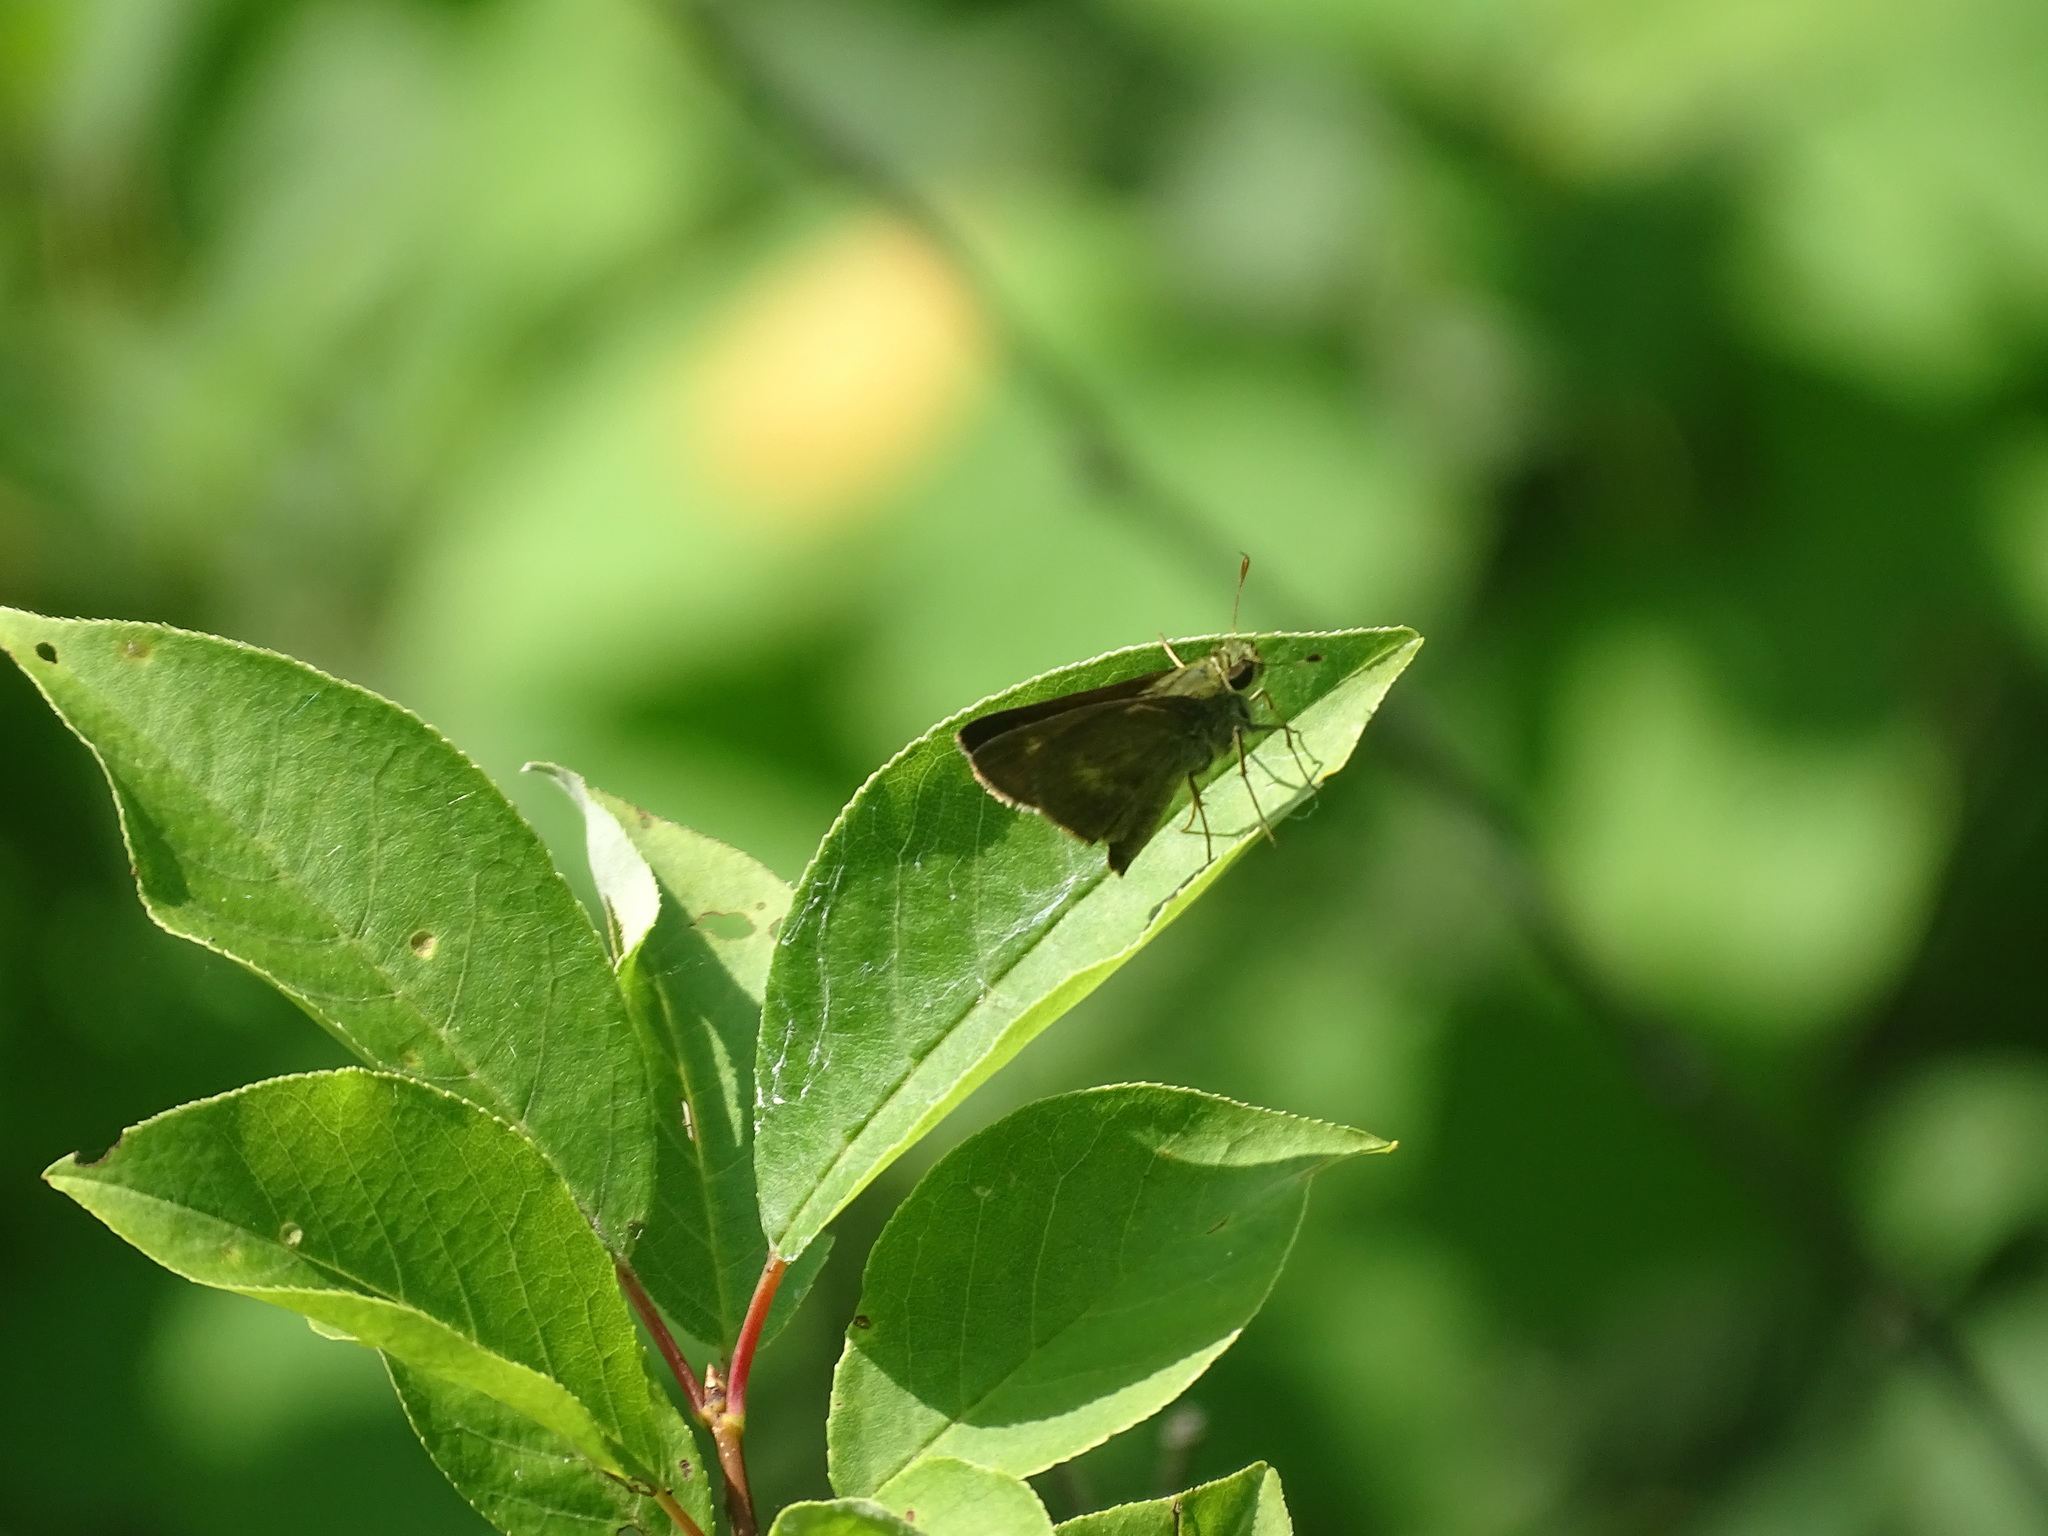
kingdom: Animalia
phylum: Arthropoda
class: Insecta
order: Lepidoptera
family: Hesperiidae
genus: Polites
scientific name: Polites egeremet
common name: Northern broken-dash
